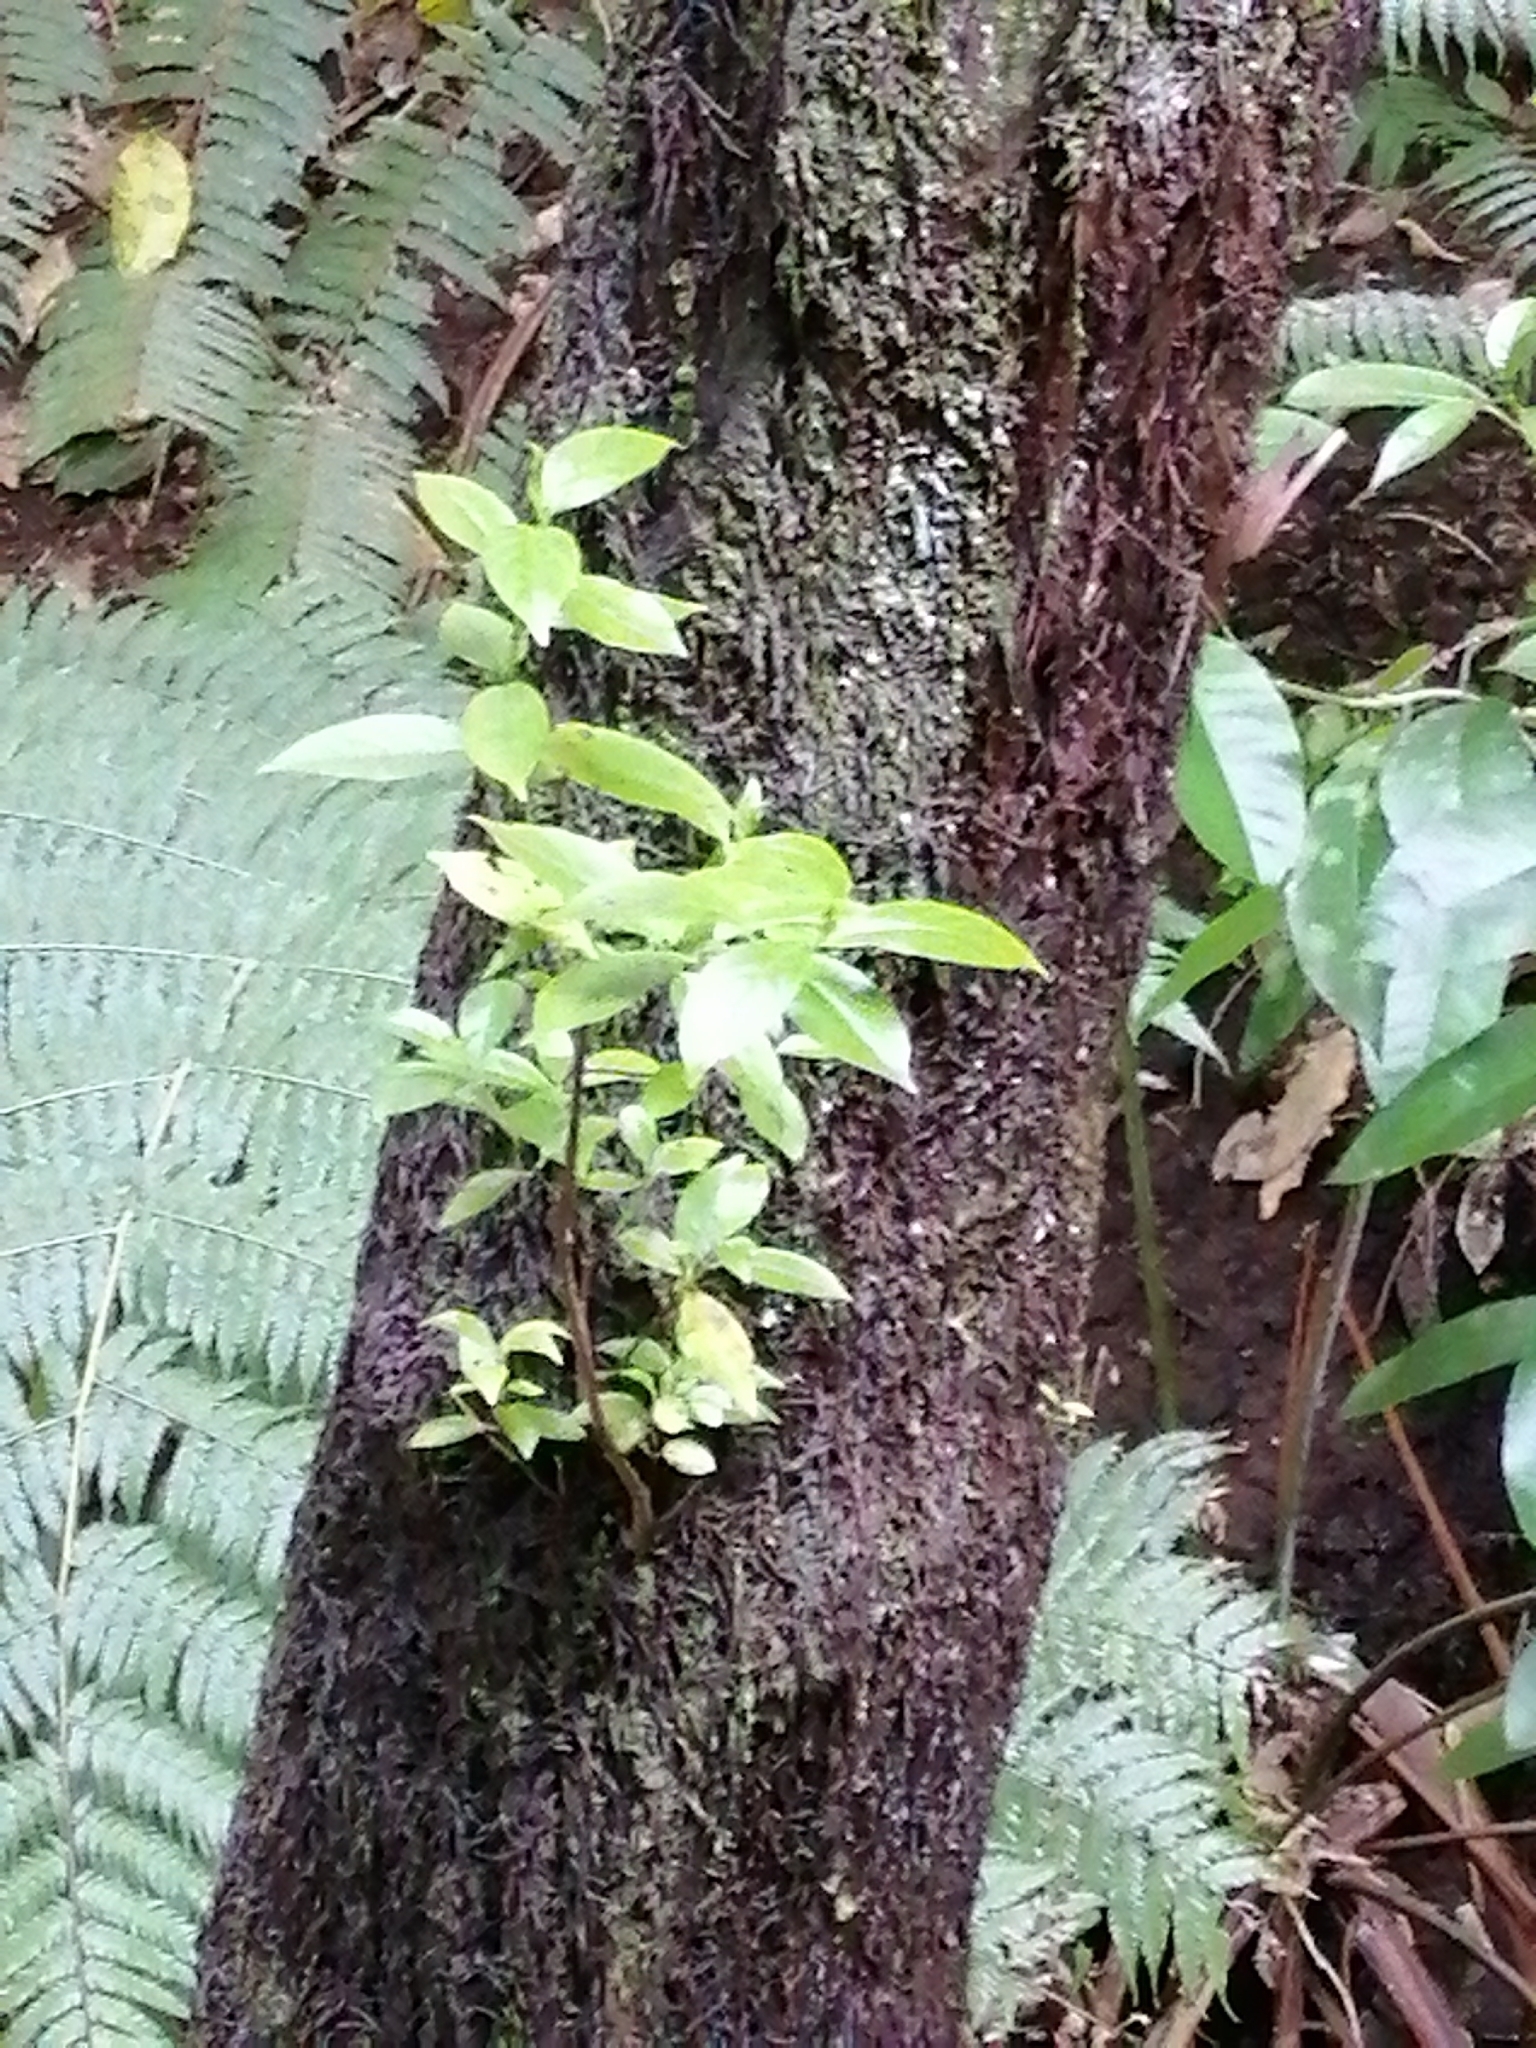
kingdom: Plantae
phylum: Tracheophyta
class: Magnoliopsida
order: Gentianales
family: Loganiaceae
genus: Geniostoma
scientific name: Geniostoma ligustrifolium
